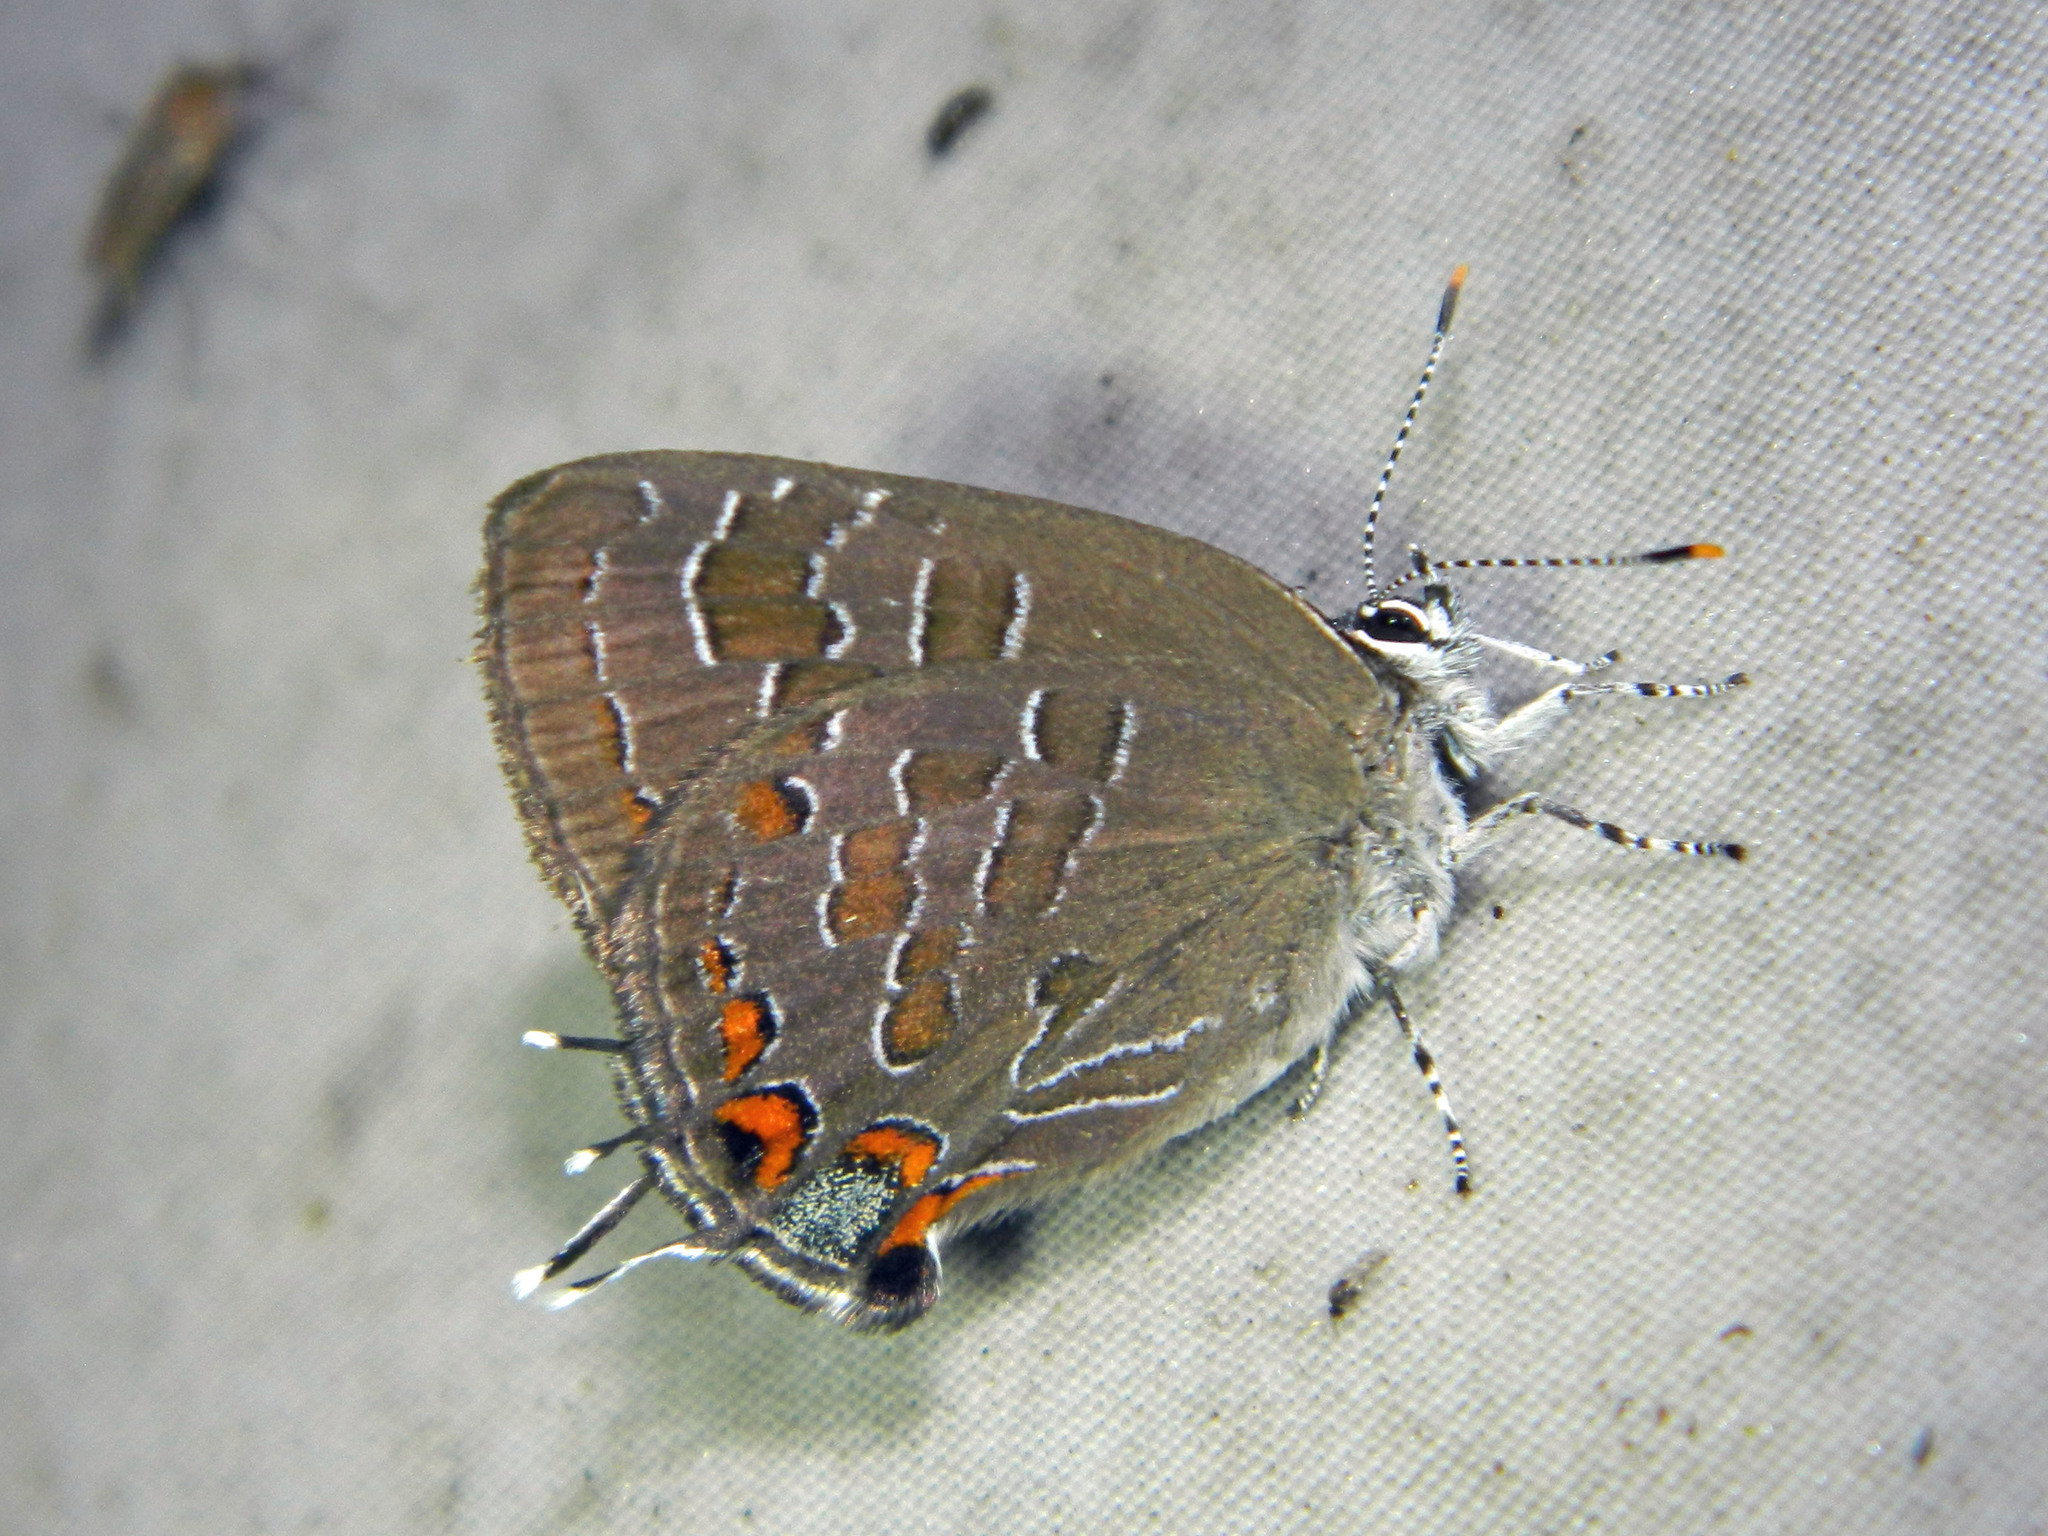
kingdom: Animalia
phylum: Arthropoda
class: Insecta
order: Lepidoptera
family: Lycaenidae
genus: Satyrium
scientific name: Satyrium liparops
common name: Striped hairstreak
